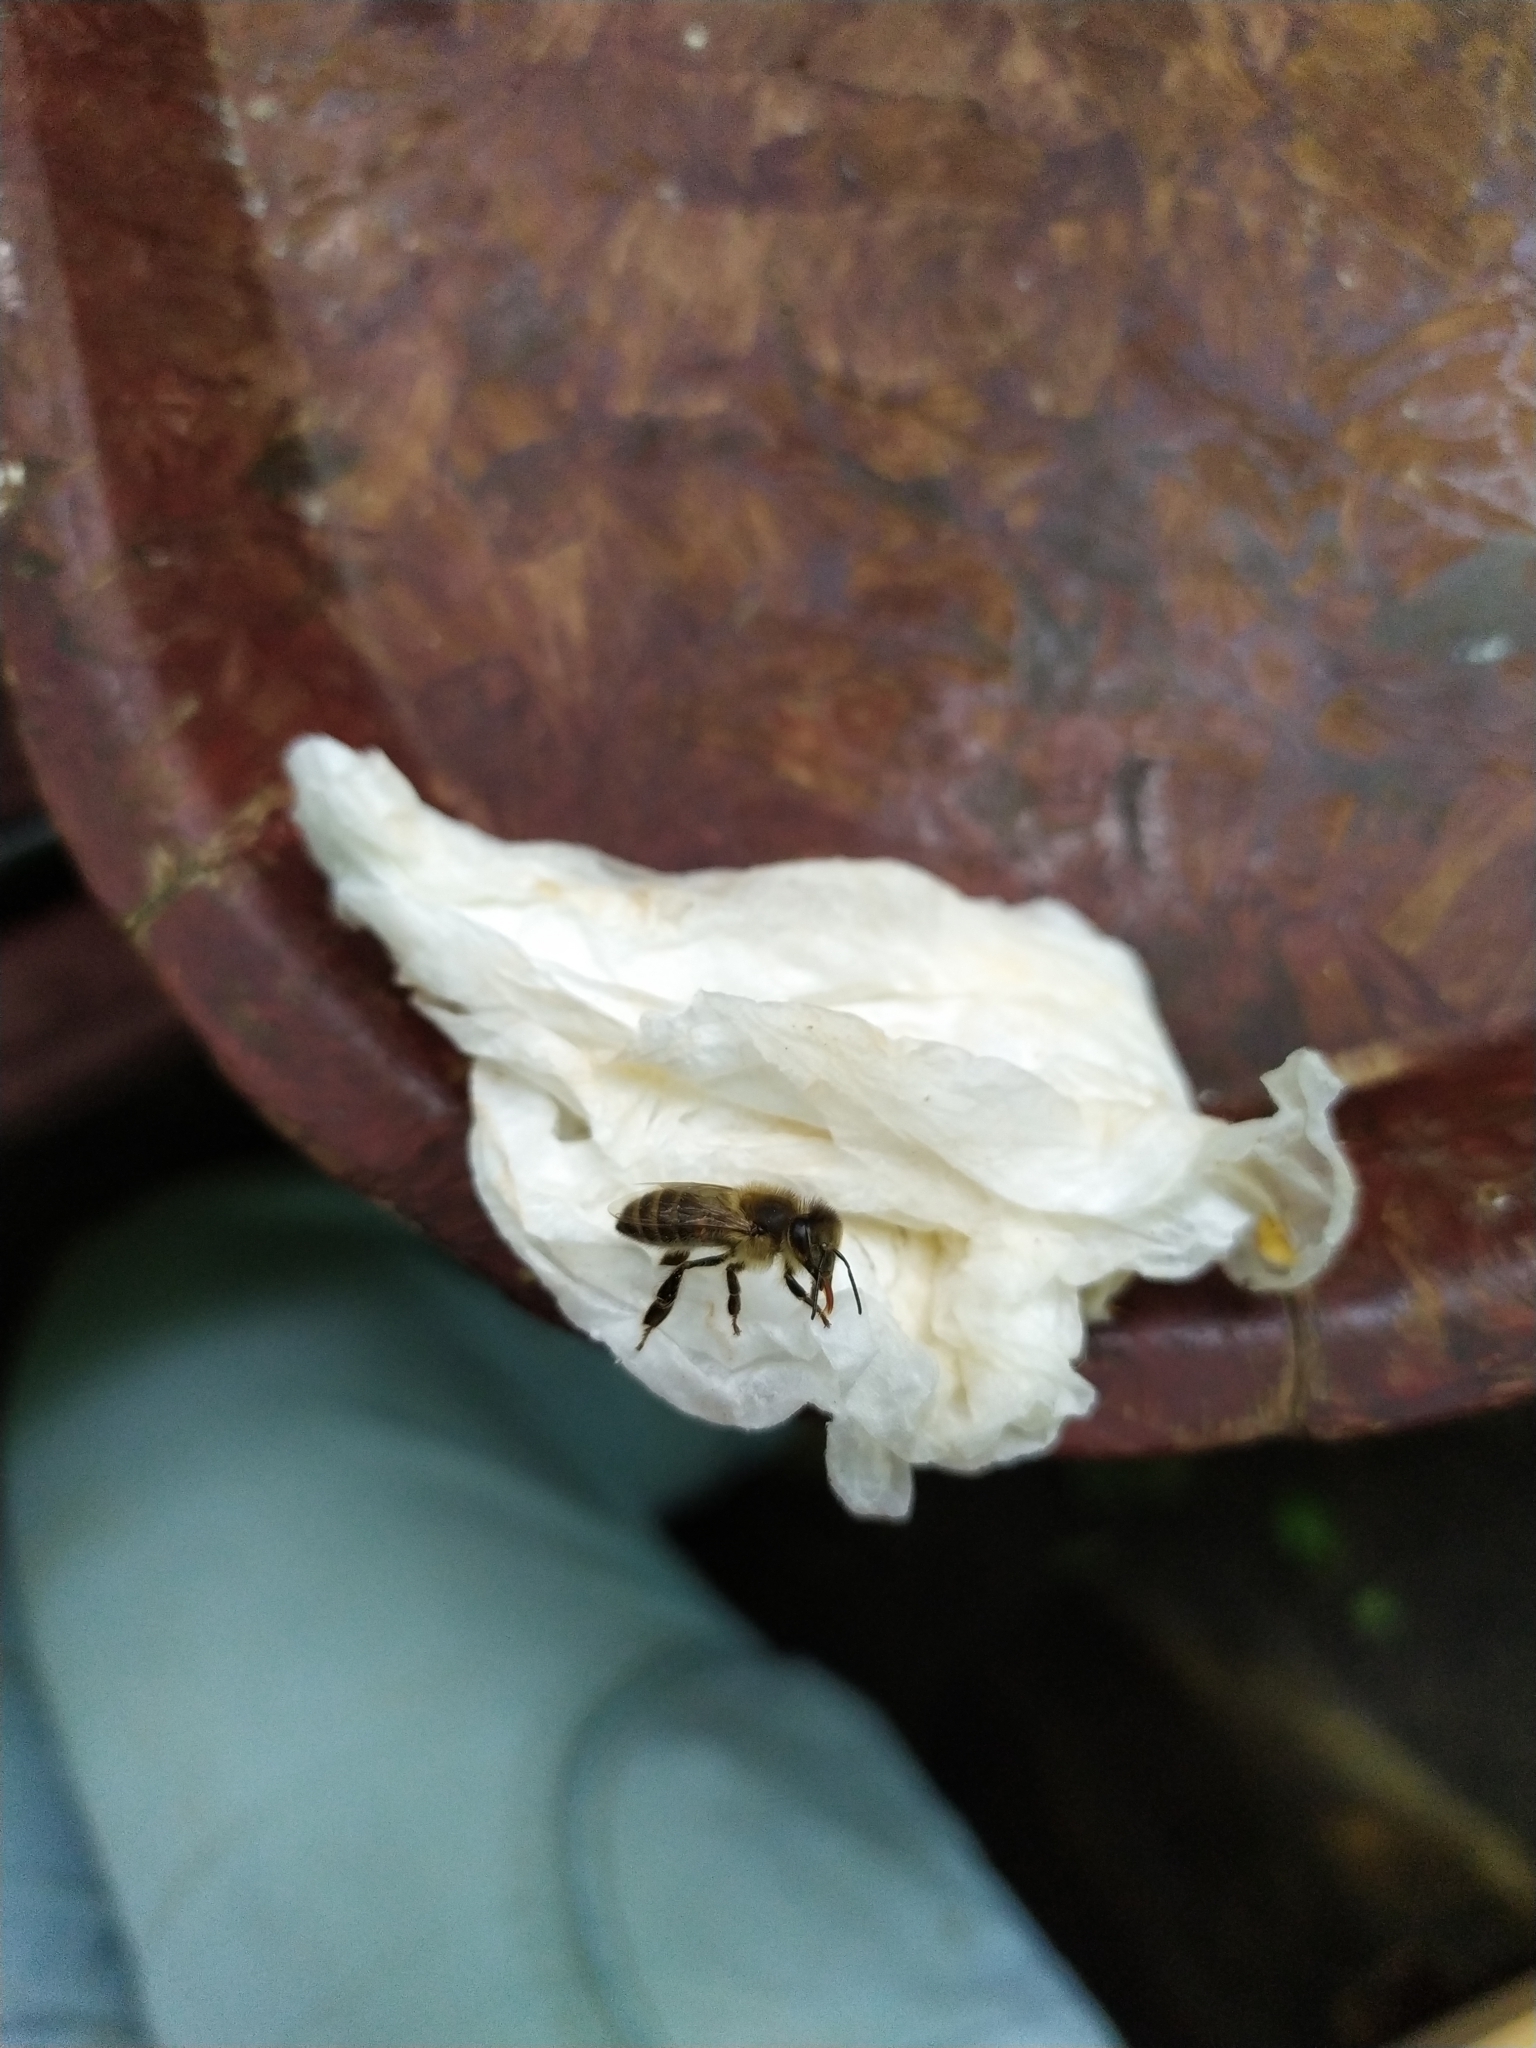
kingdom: Animalia
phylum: Arthropoda
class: Insecta
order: Hymenoptera
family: Apidae
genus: Apis
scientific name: Apis mellifera
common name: Honey bee
